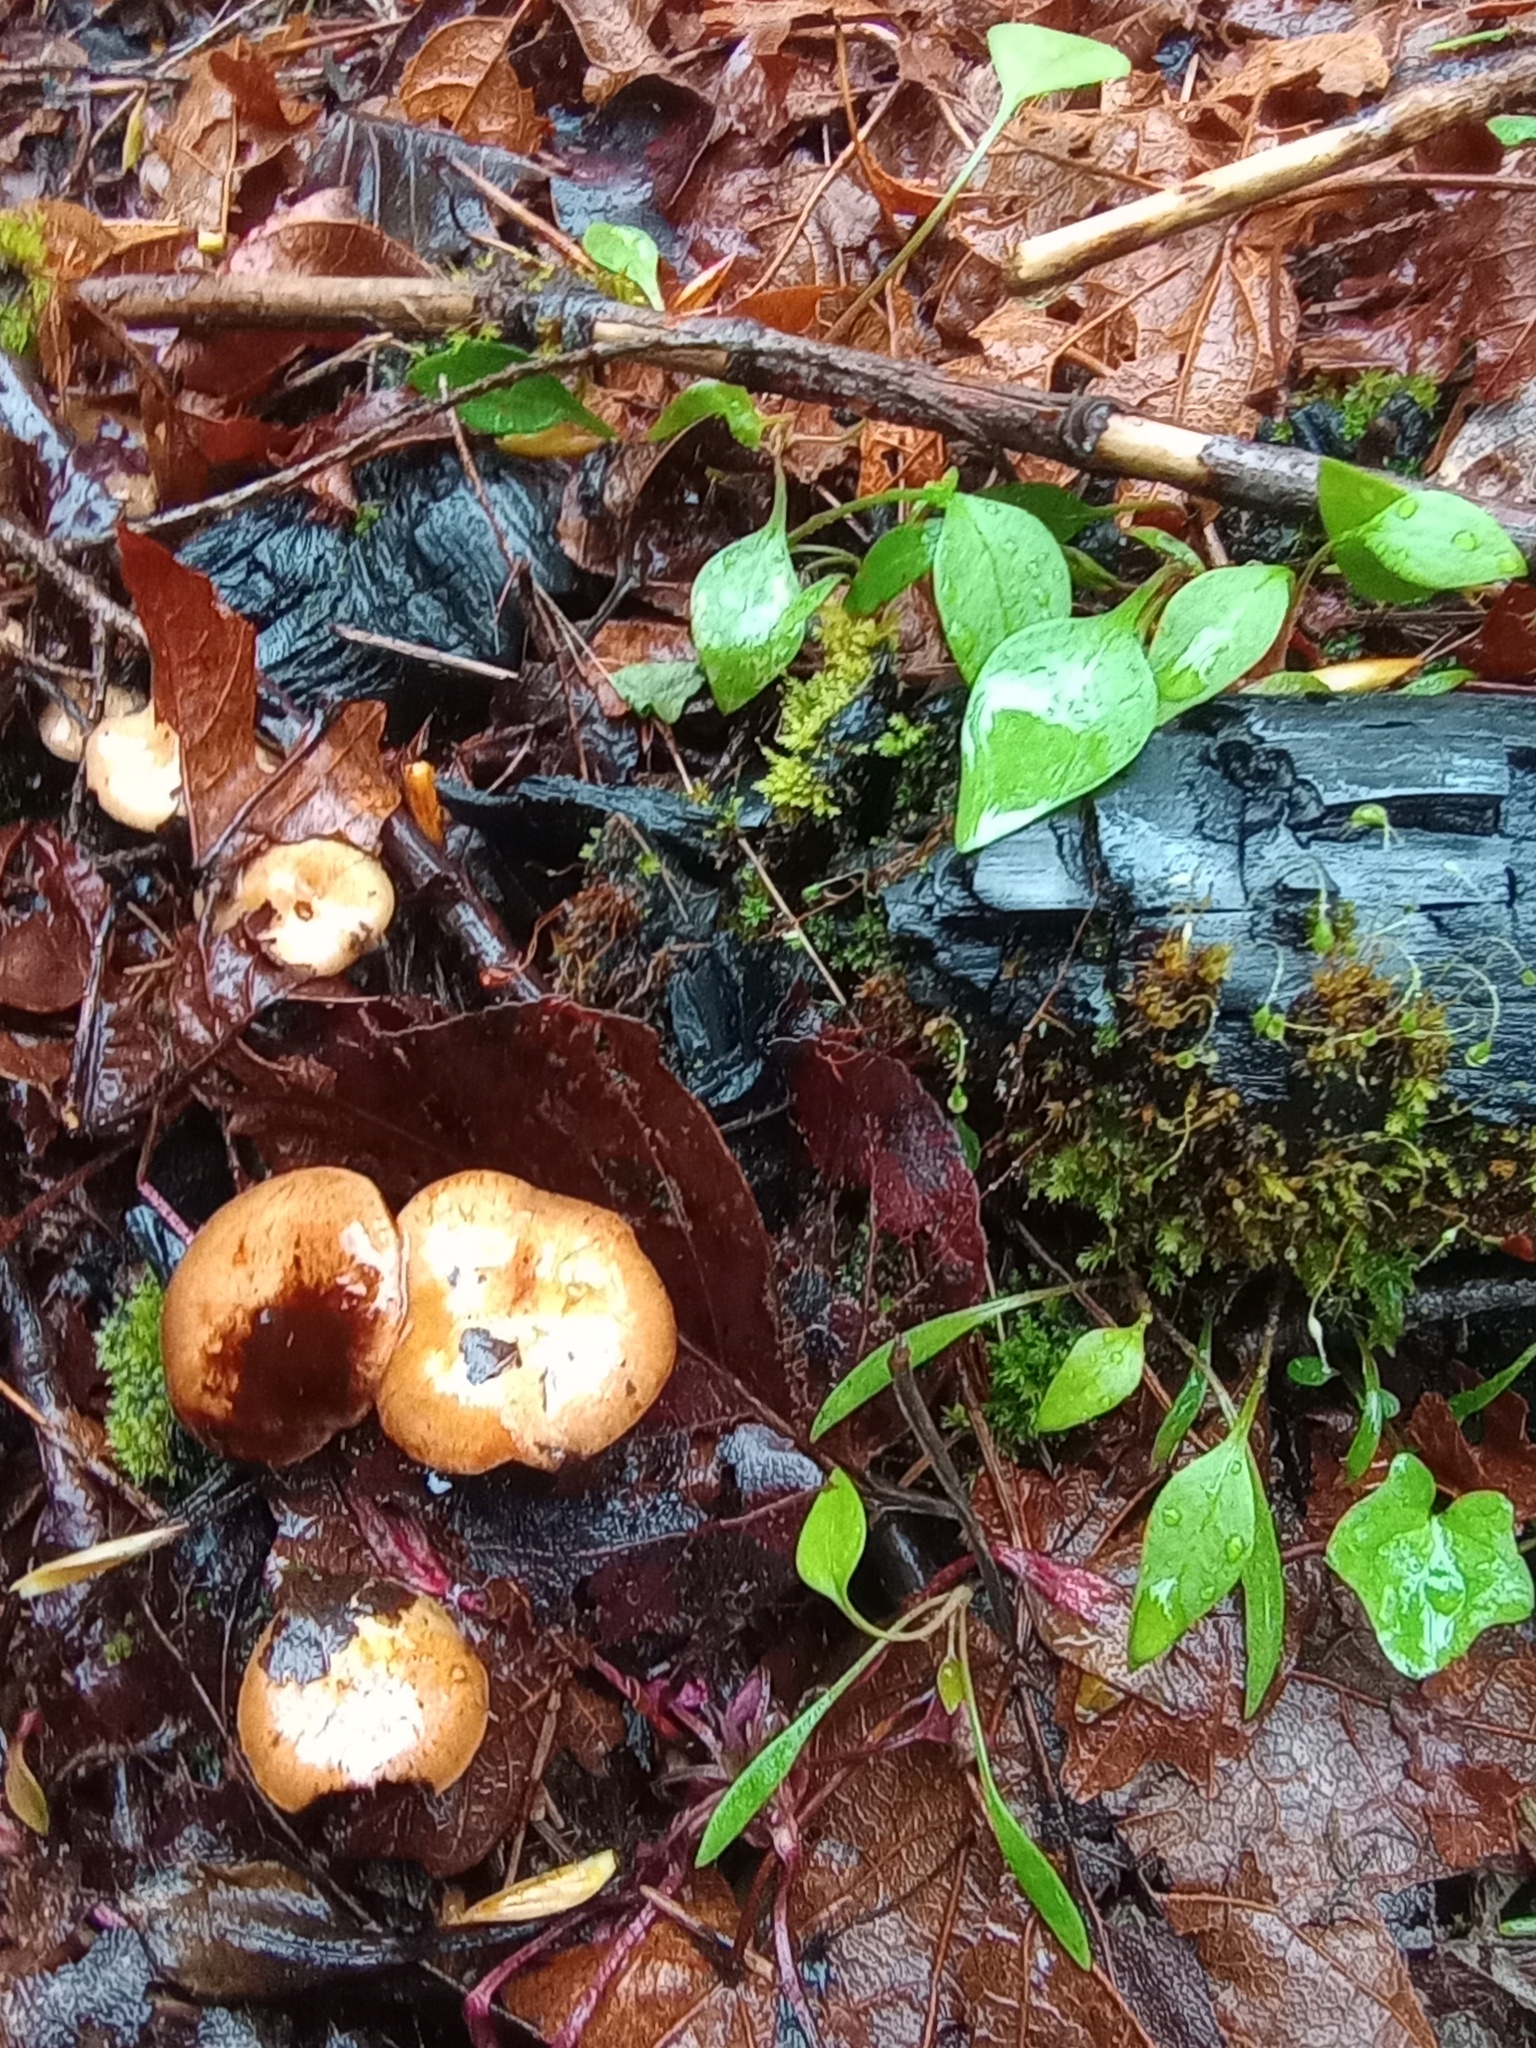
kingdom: Fungi
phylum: Basidiomycota
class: Agaricomycetes
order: Agaricales
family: Strophariaceae
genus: Pholiota
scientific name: Pholiota brunnescens
